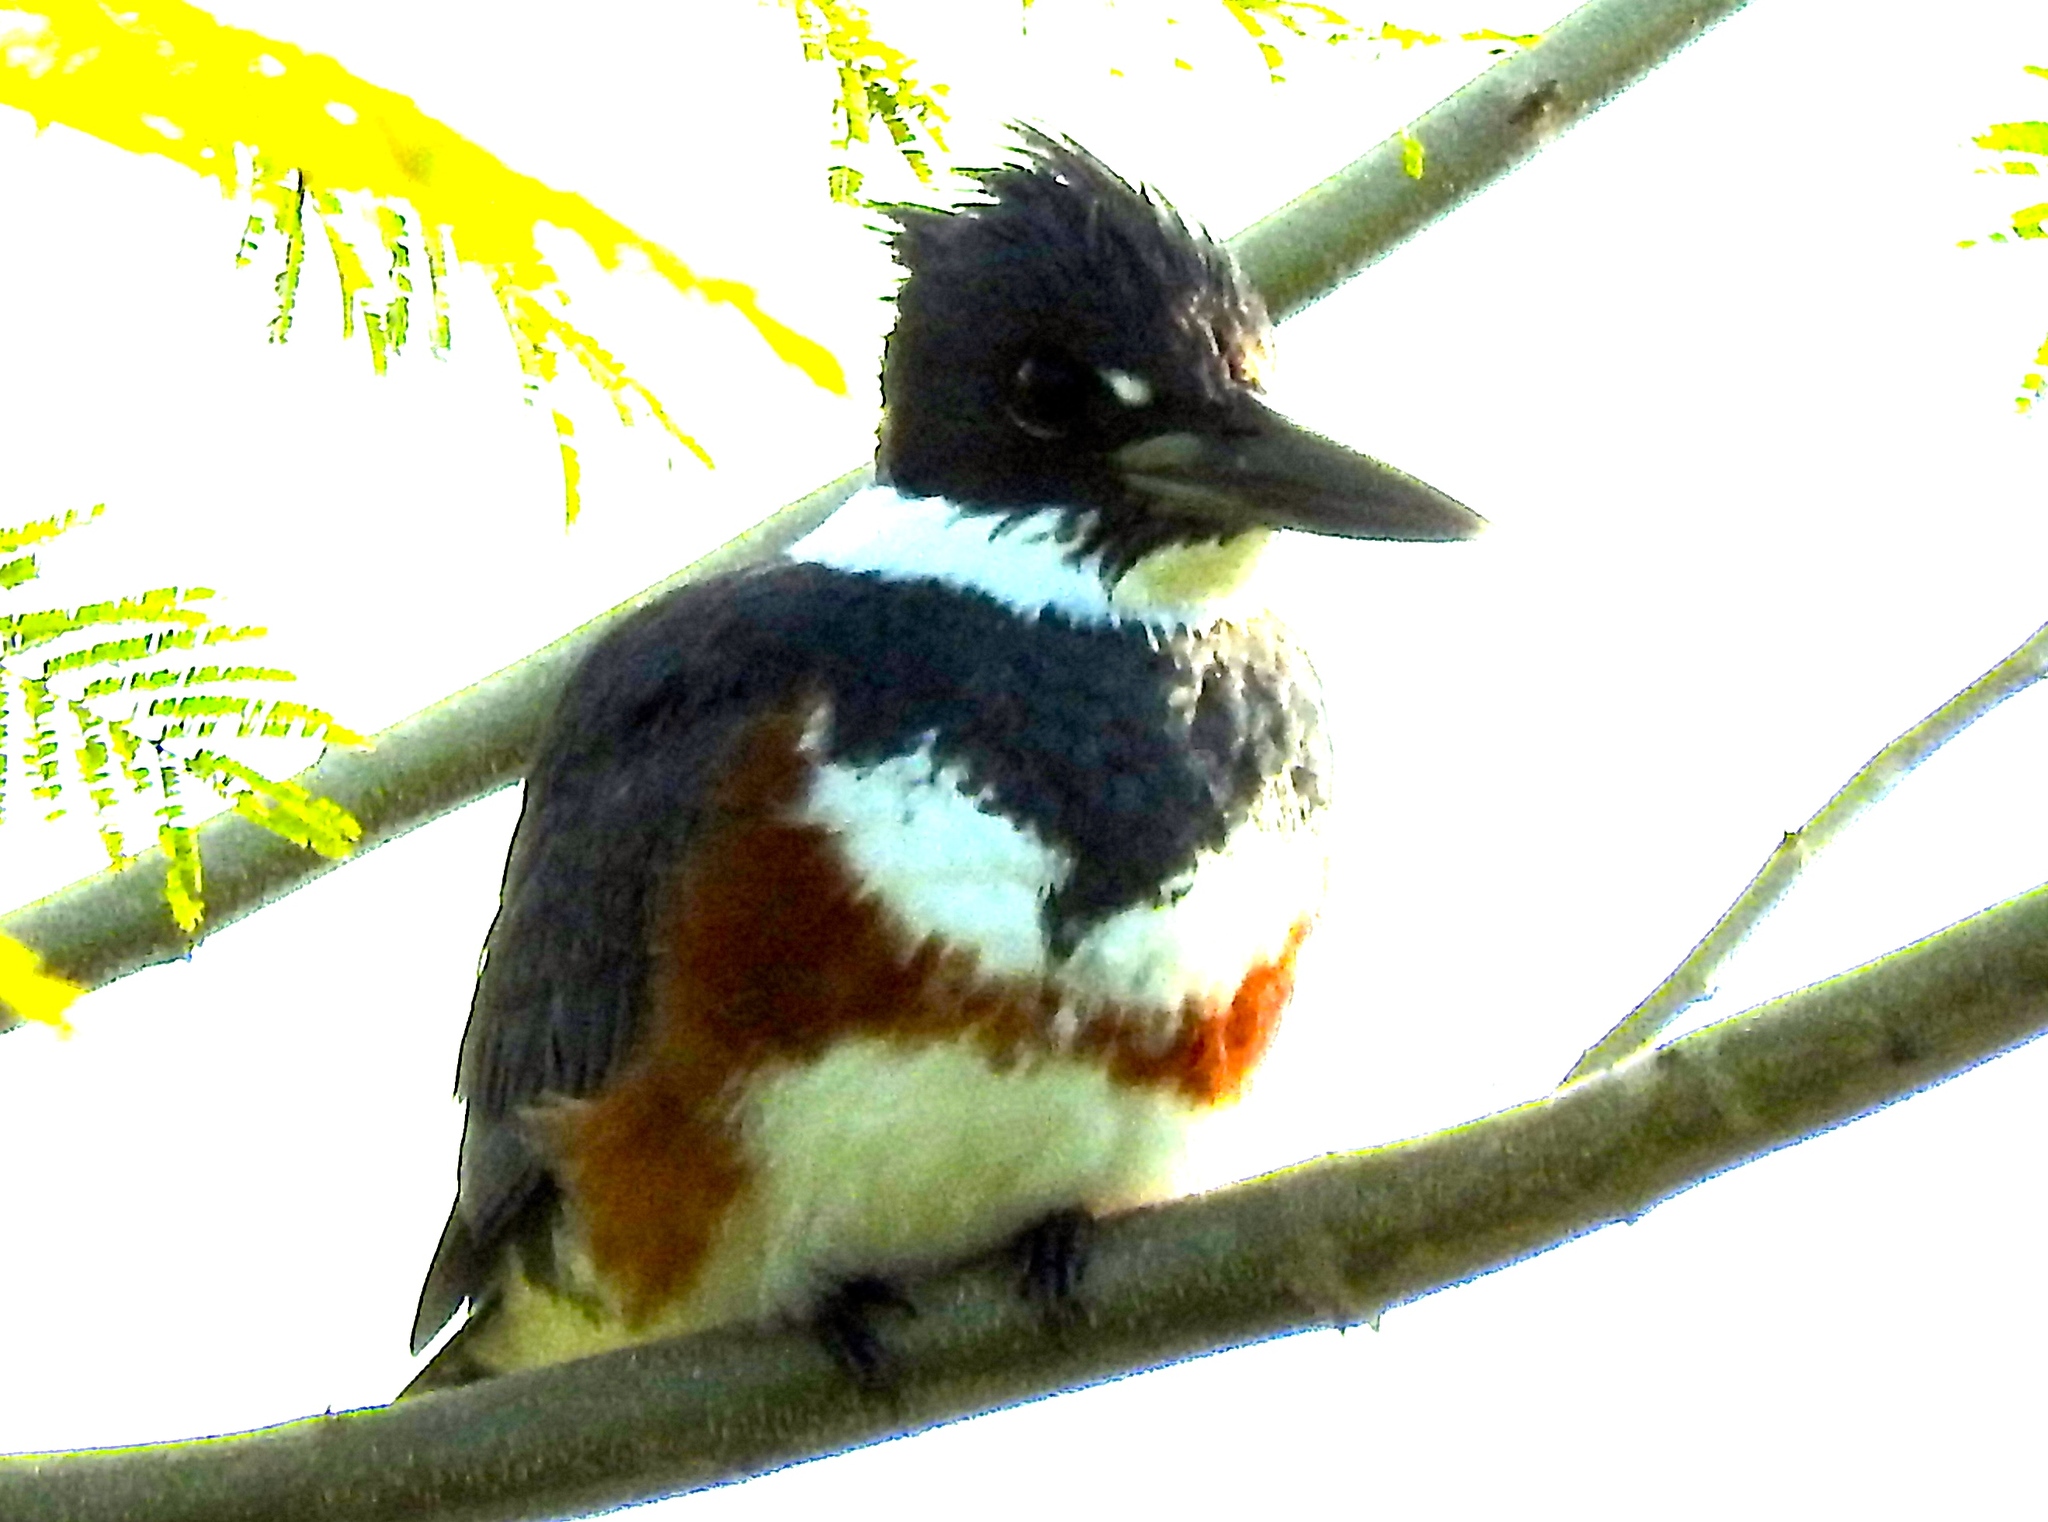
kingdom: Animalia
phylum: Chordata
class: Aves
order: Coraciiformes
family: Alcedinidae
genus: Megaceryle
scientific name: Megaceryle alcyon
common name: Belted kingfisher
